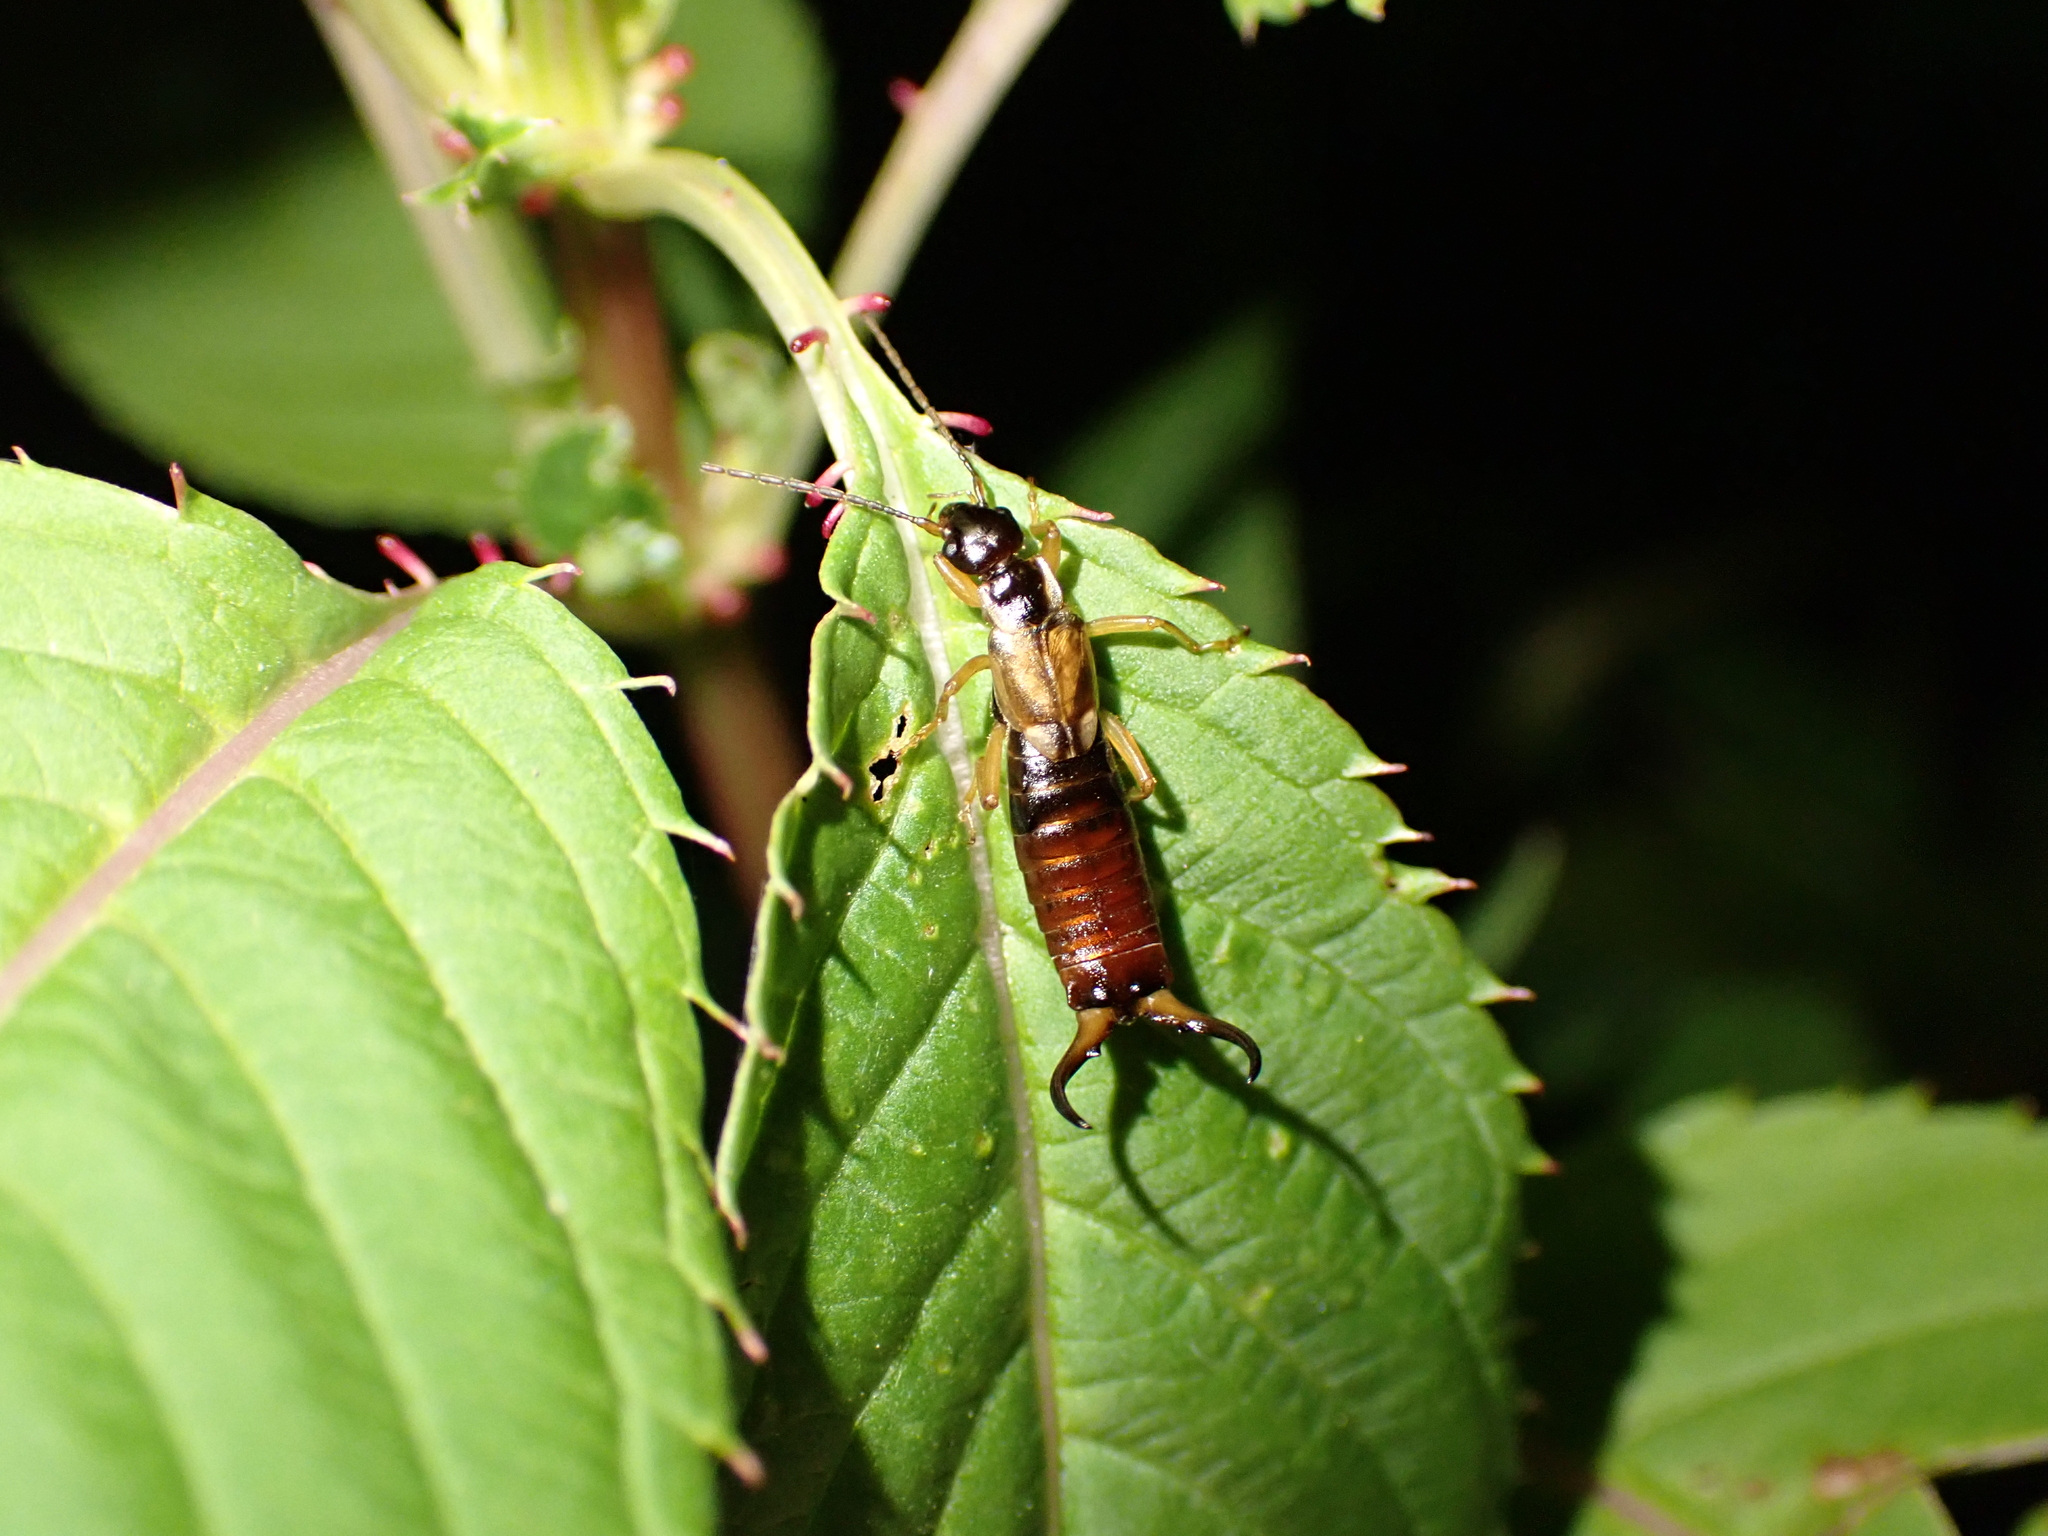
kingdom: Animalia
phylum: Arthropoda
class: Insecta
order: Dermaptera
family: Forficulidae
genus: Forficula
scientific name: Forficula
